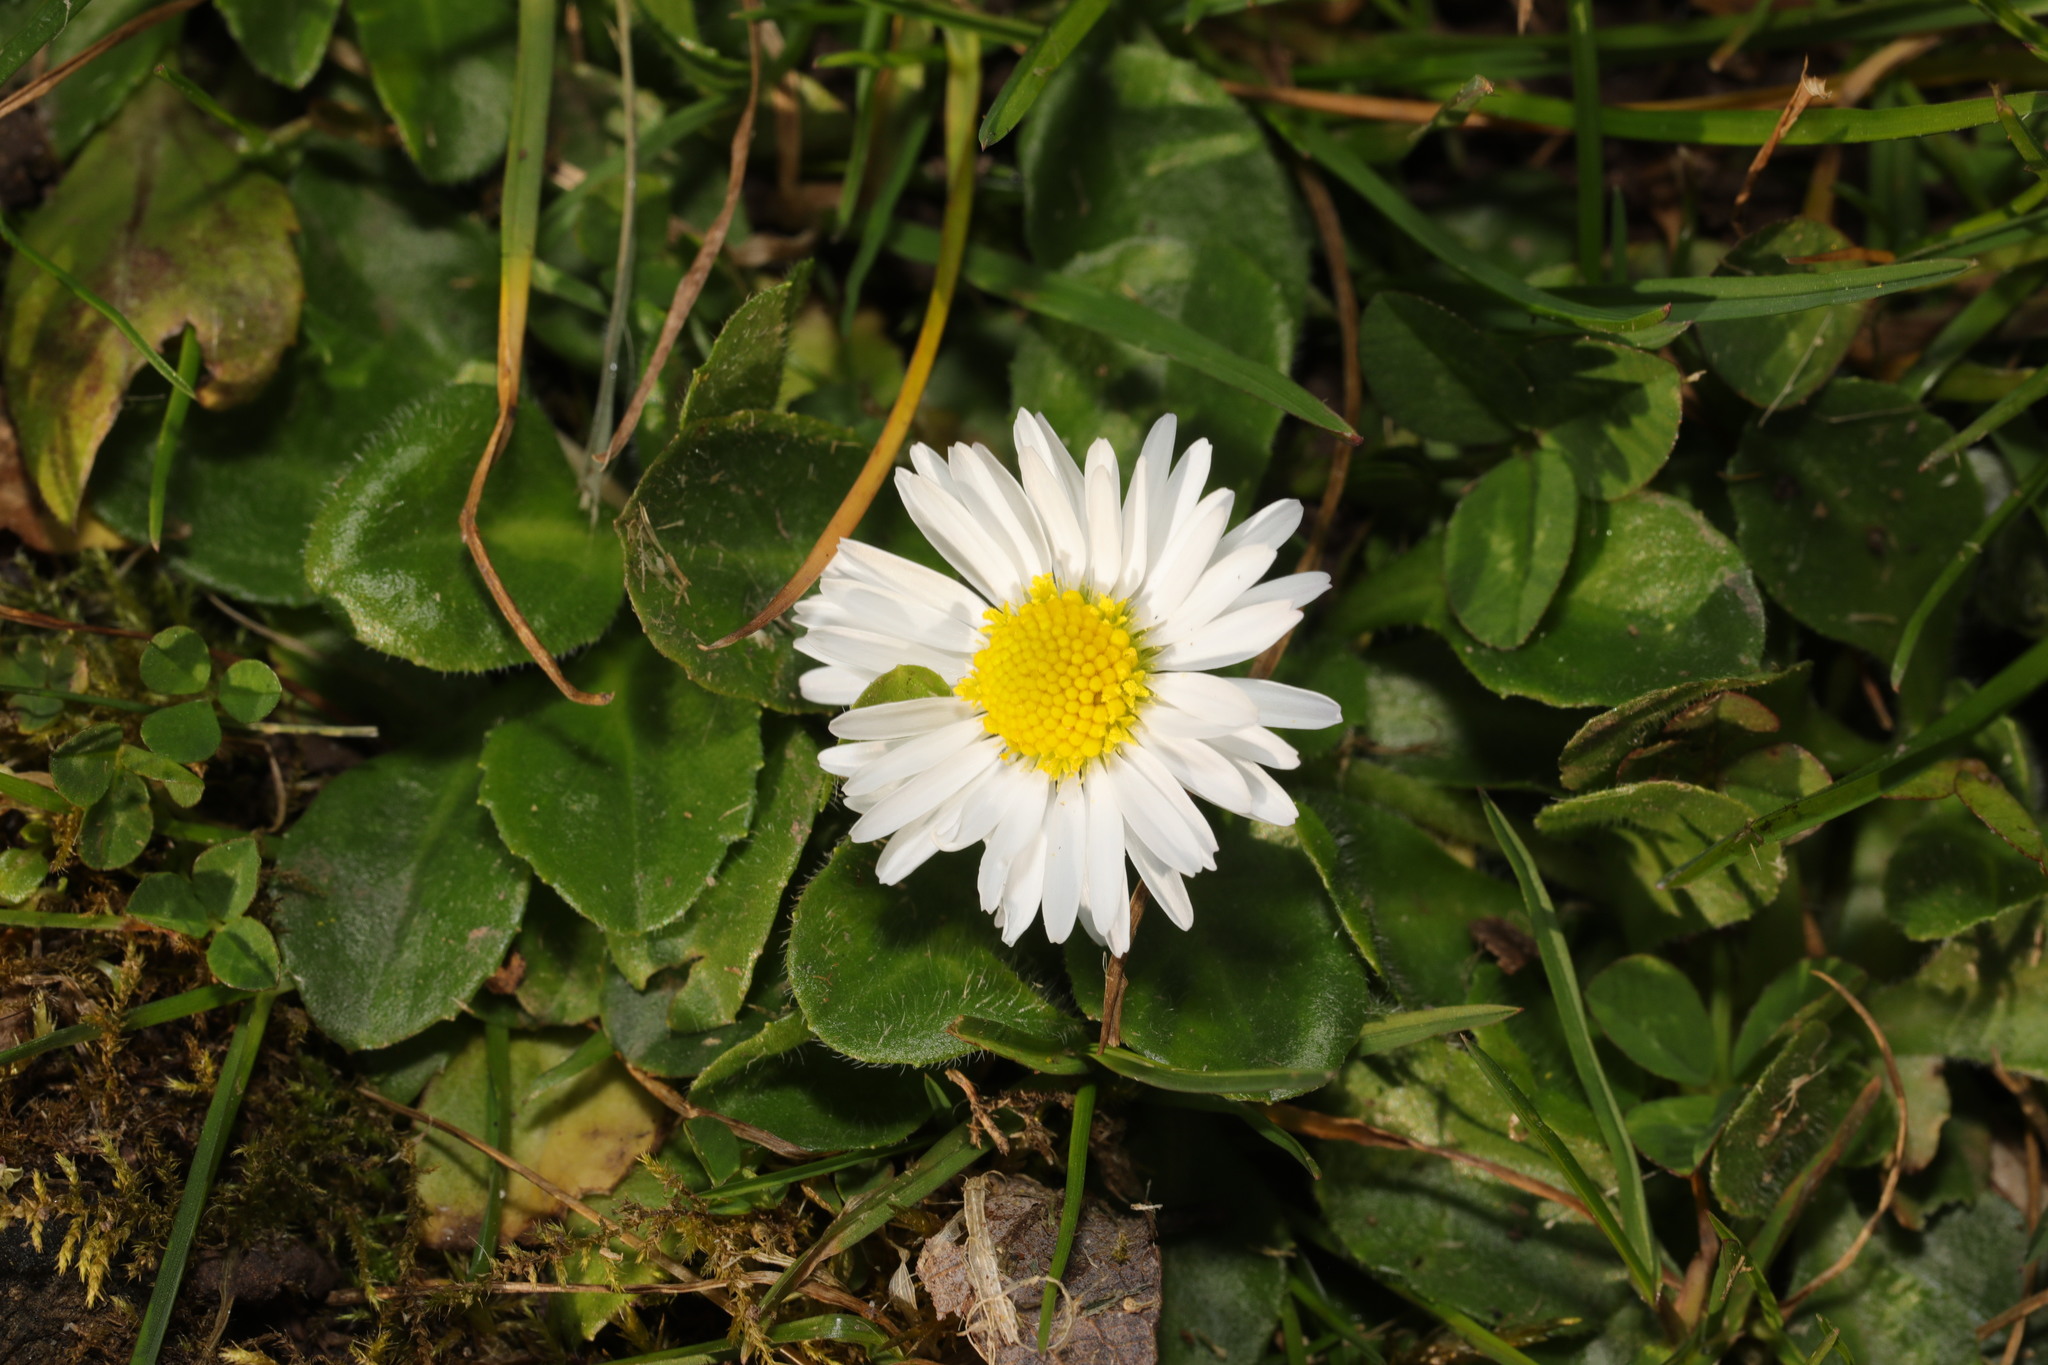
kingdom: Plantae
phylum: Tracheophyta
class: Magnoliopsida
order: Asterales
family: Asteraceae
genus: Bellis
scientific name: Bellis perennis
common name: Lawndaisy
